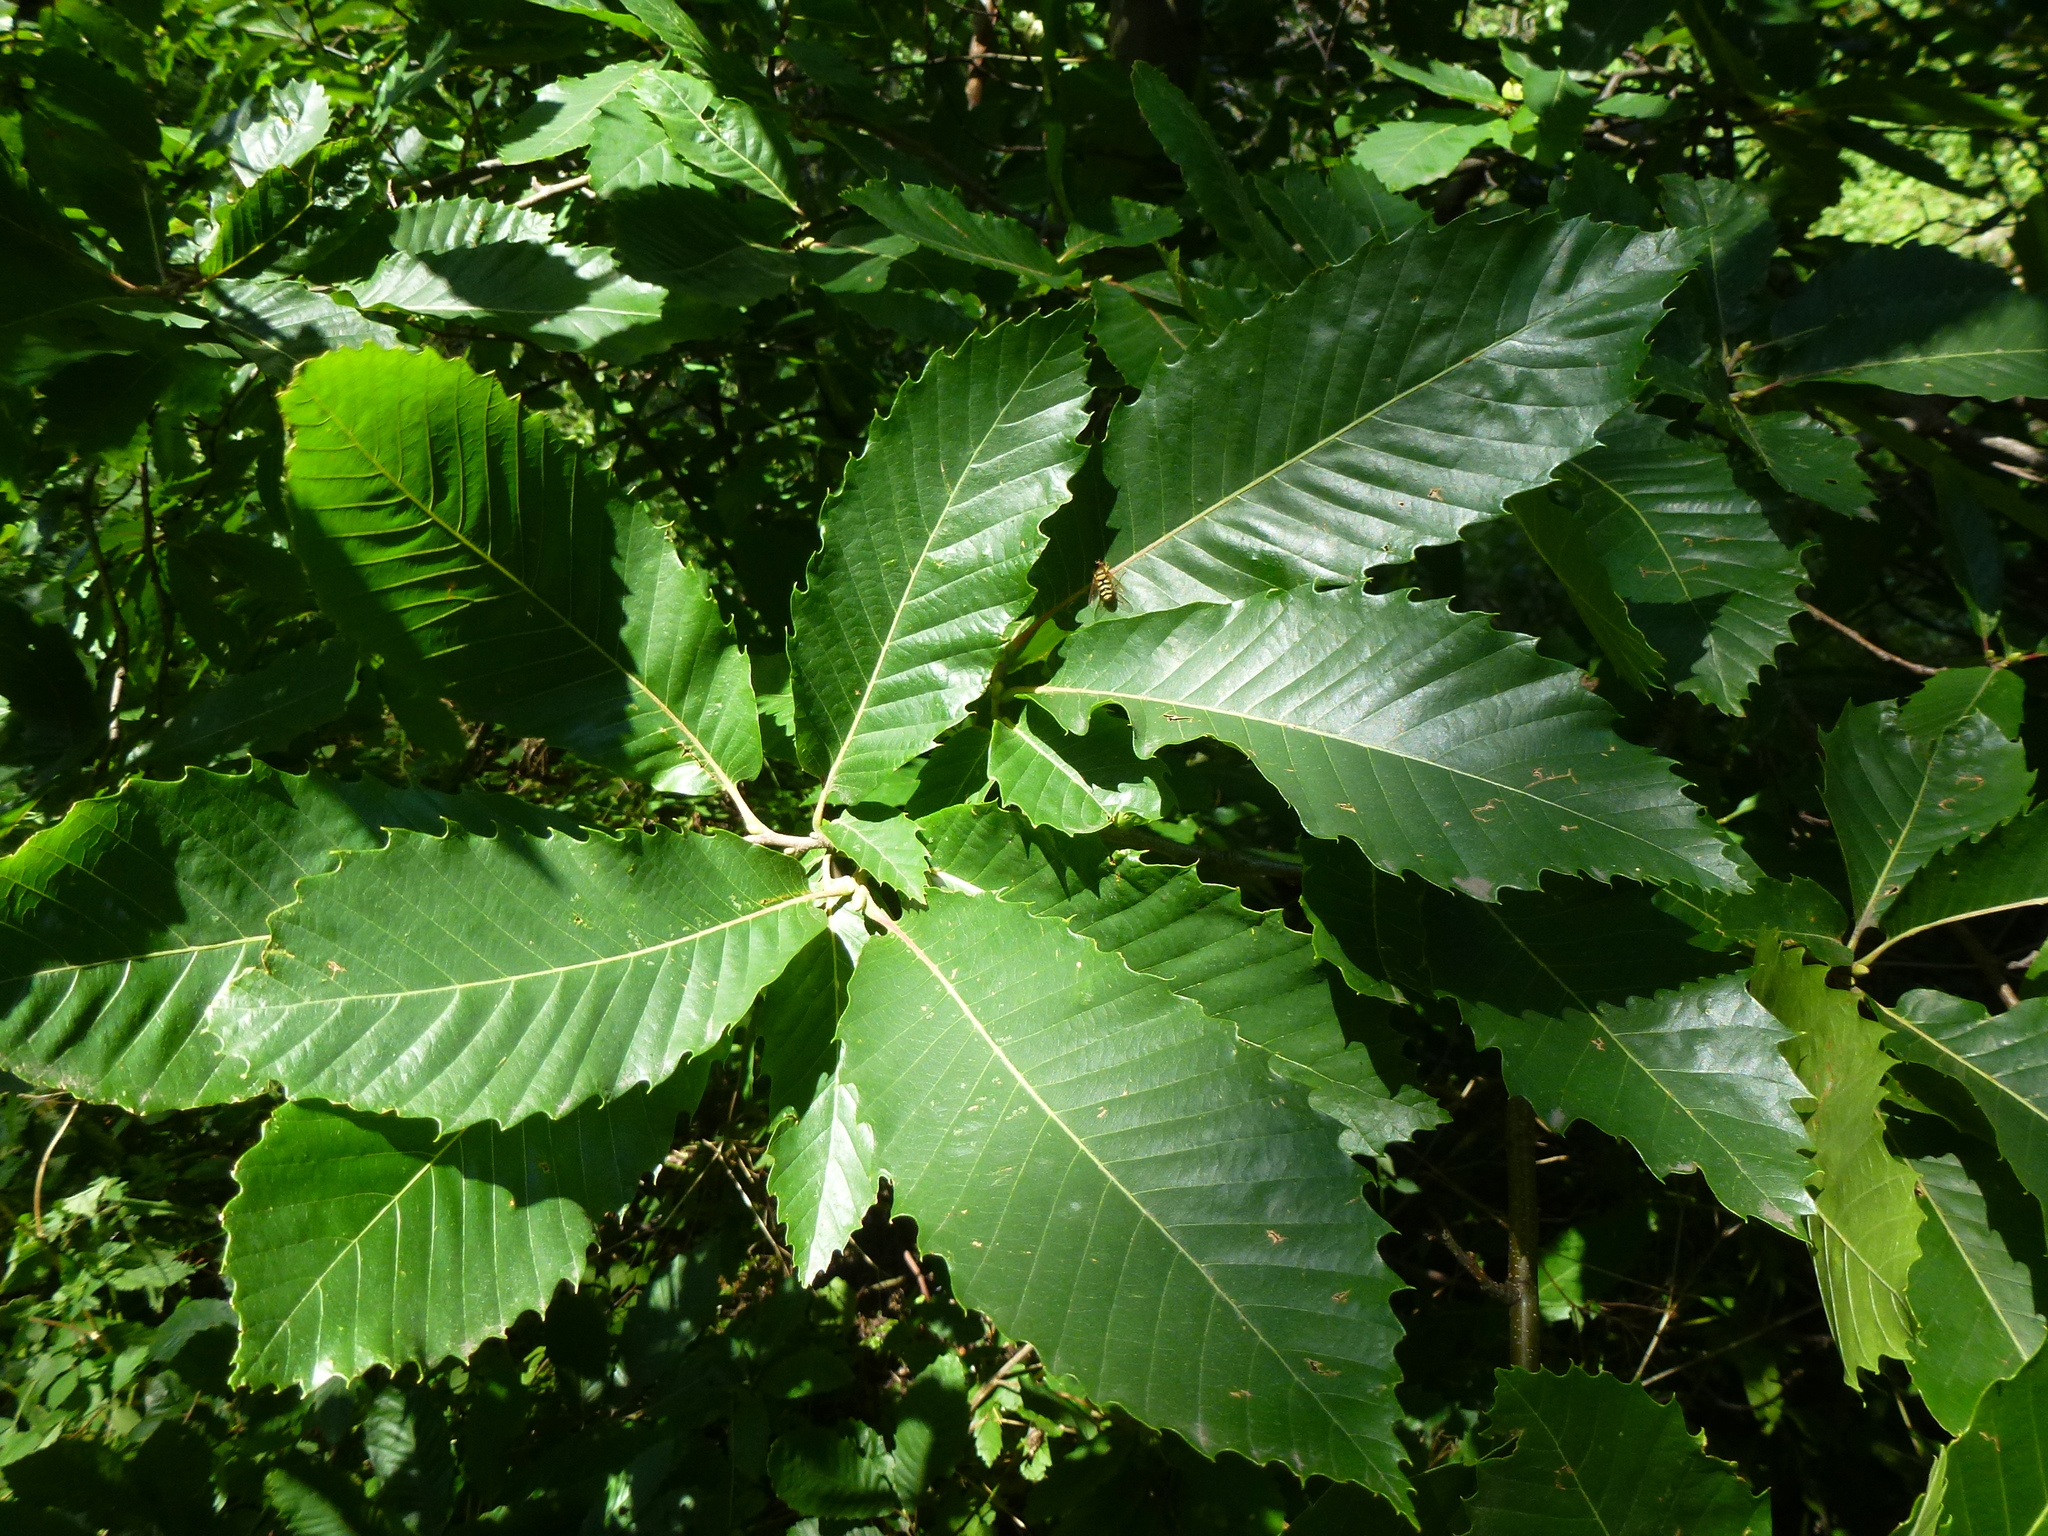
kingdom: Plantae
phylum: Tracheophyta
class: Magnoliopsida
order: Fagales
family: Fagaceae
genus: Castanea
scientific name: Castanea sativa
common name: Sweet chestnut
